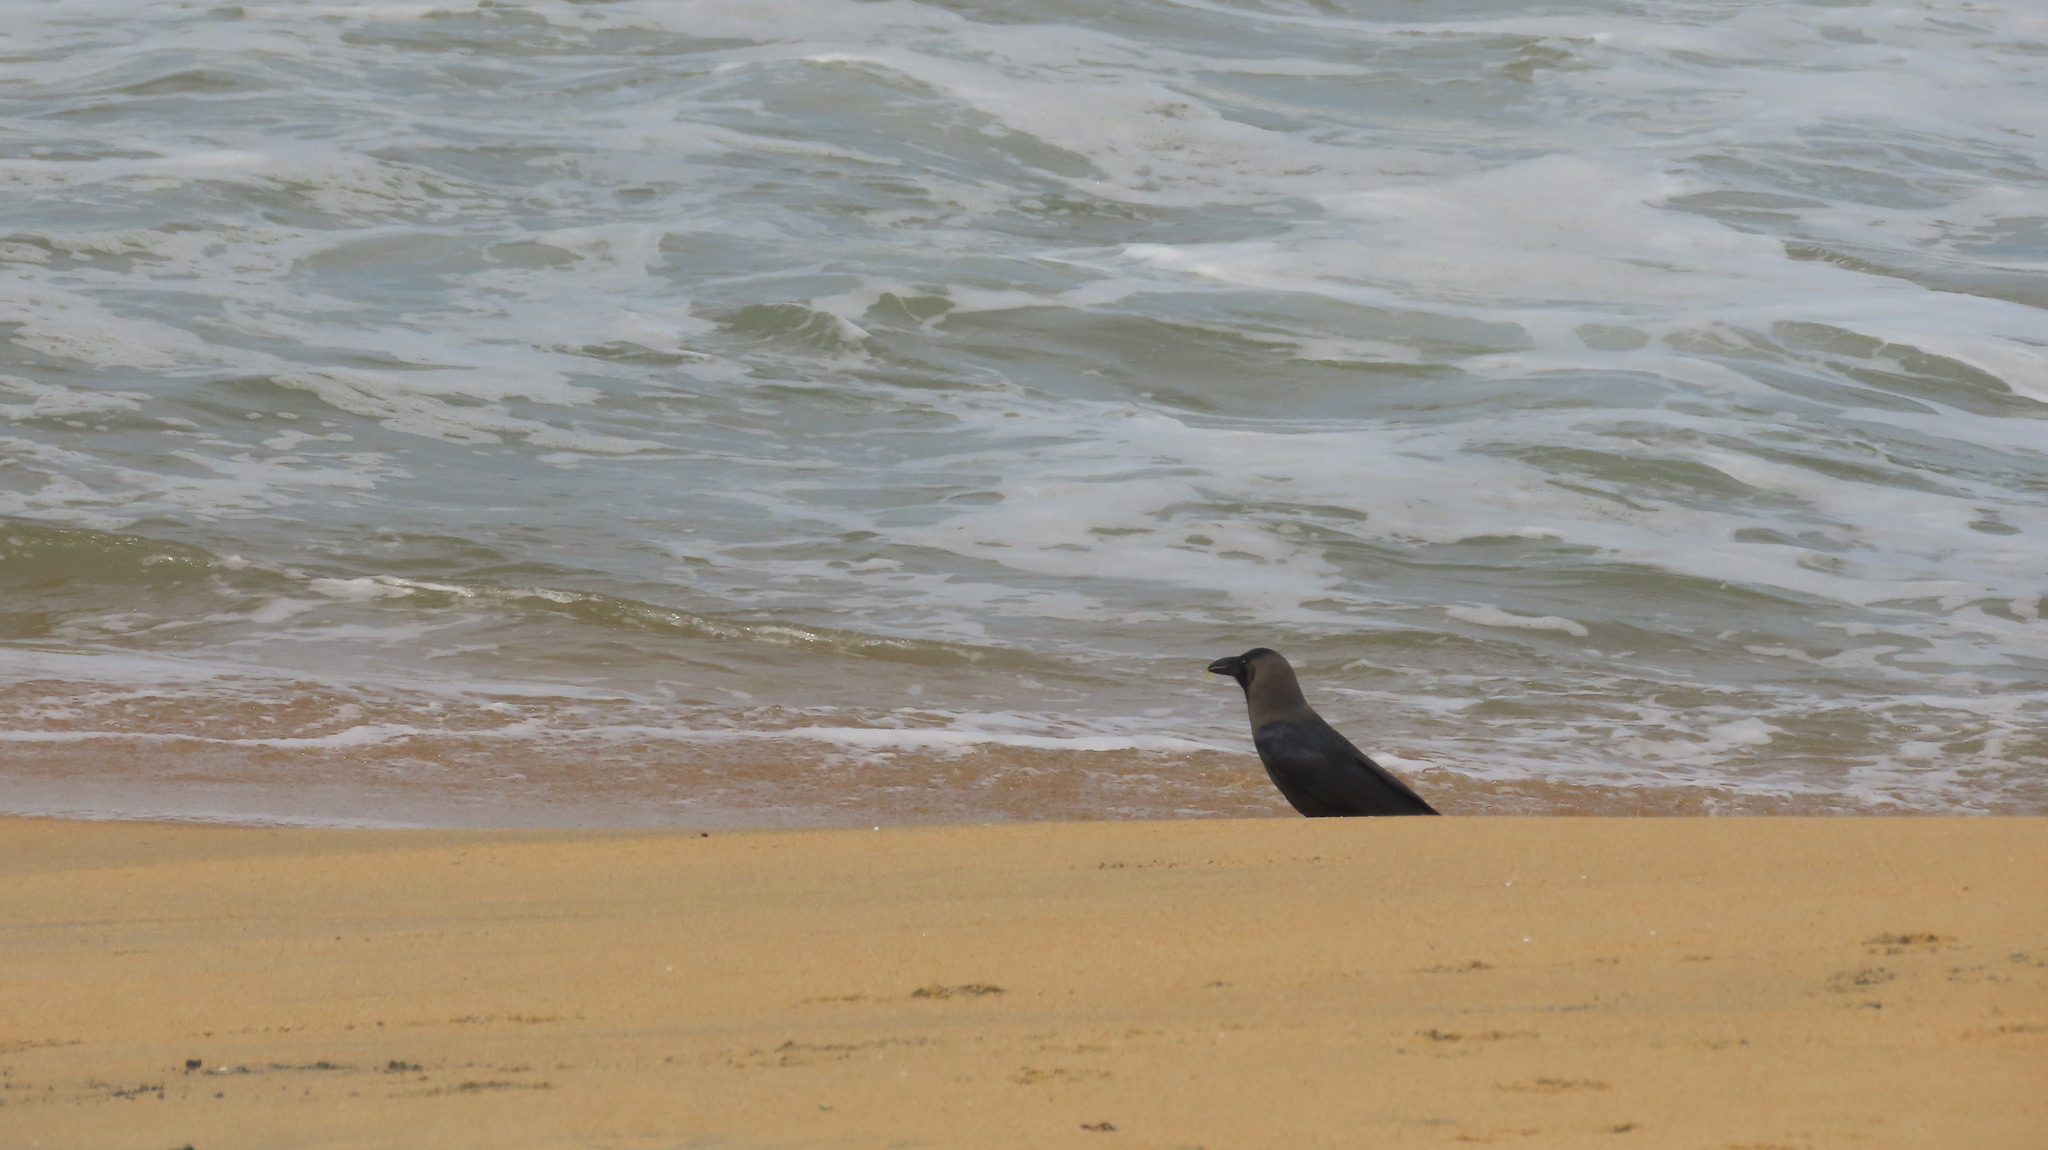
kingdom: Animalia
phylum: Chordata
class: Aves
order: Passeriformes
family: Corvidae
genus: Corvus
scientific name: Corvus splendens
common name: House crow
